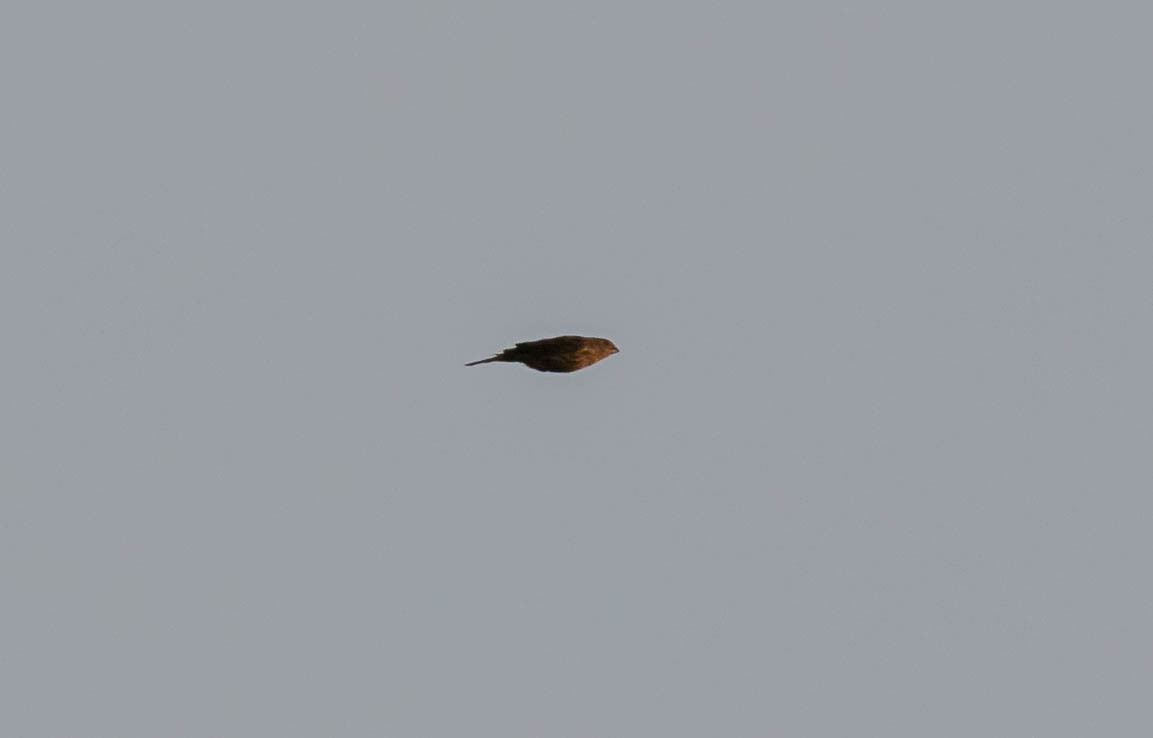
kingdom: Animalia
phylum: Chordata
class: Aves
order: Passeriformes
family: Fringillidae
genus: Haemorhous
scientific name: Haemorhous mexicanus
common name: House finch
